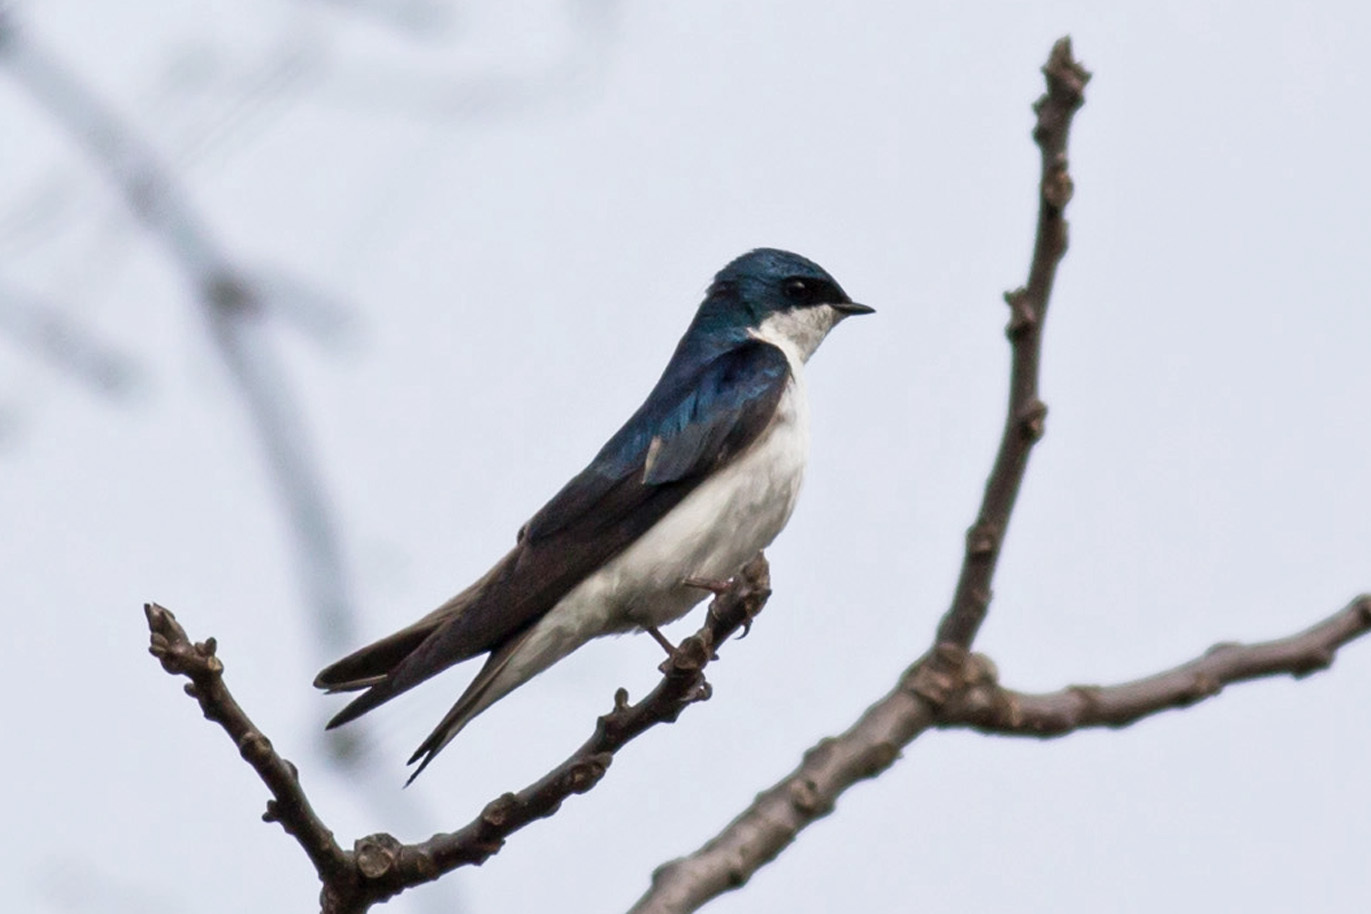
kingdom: Animalia
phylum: Chordata
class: Aves
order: Passeriformes
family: Hirundinidae
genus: Tachycineta
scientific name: Tachycineta bicolor
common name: Tree swallow
